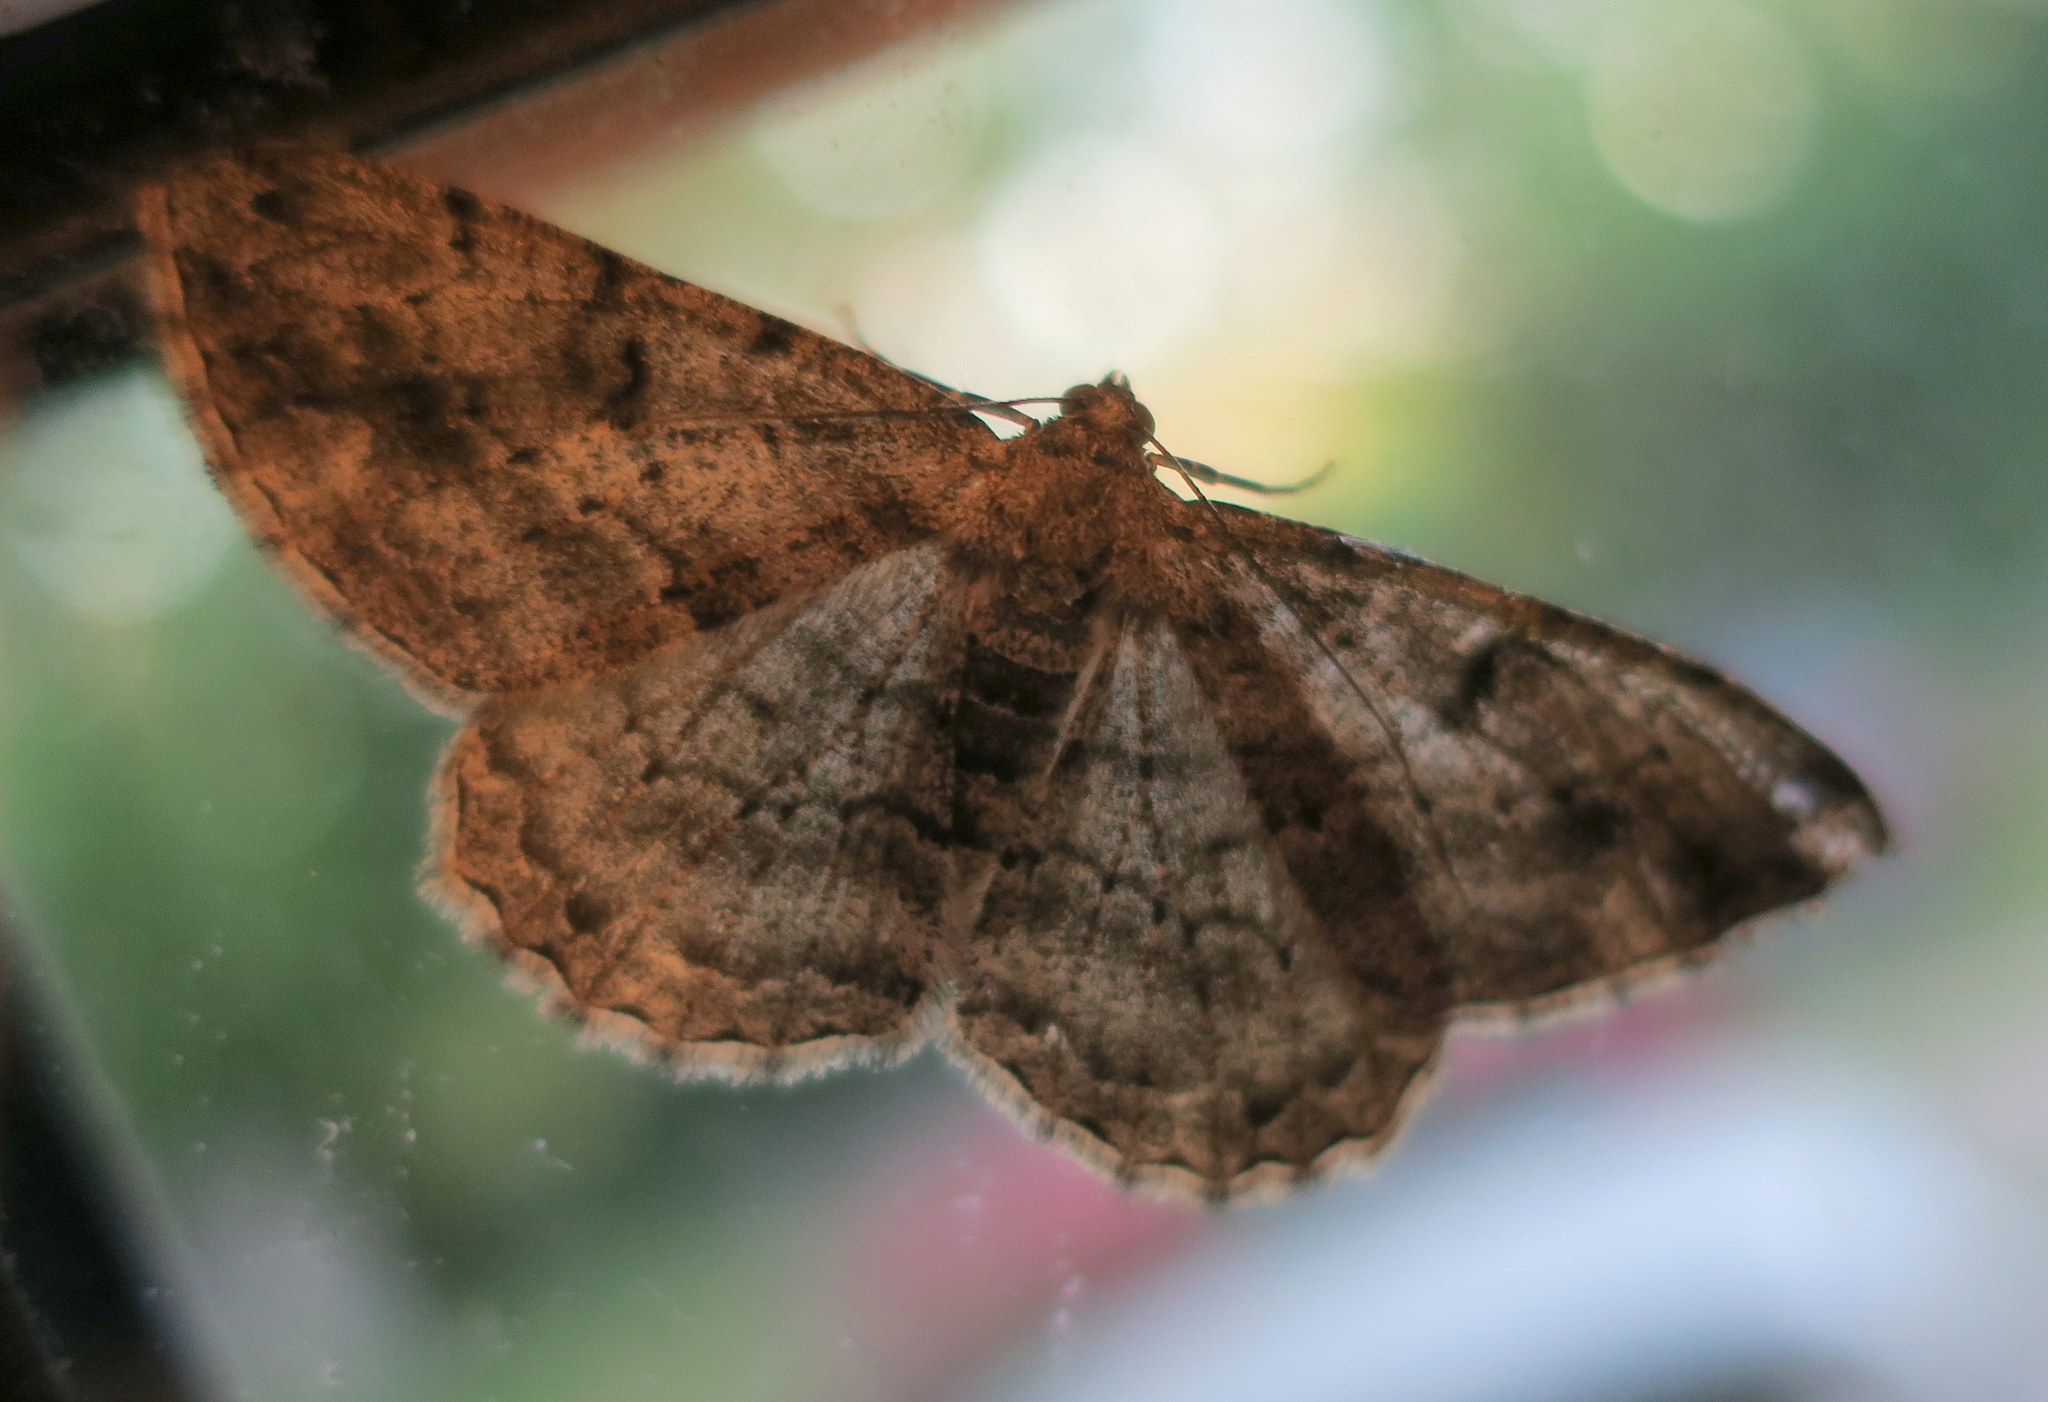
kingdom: Animalia
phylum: Arthropoda
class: Insecta
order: Lepidoptera
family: Geometridae
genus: Peribatodes
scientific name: Peribatodes rhomboidaria
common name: Willow beauty
